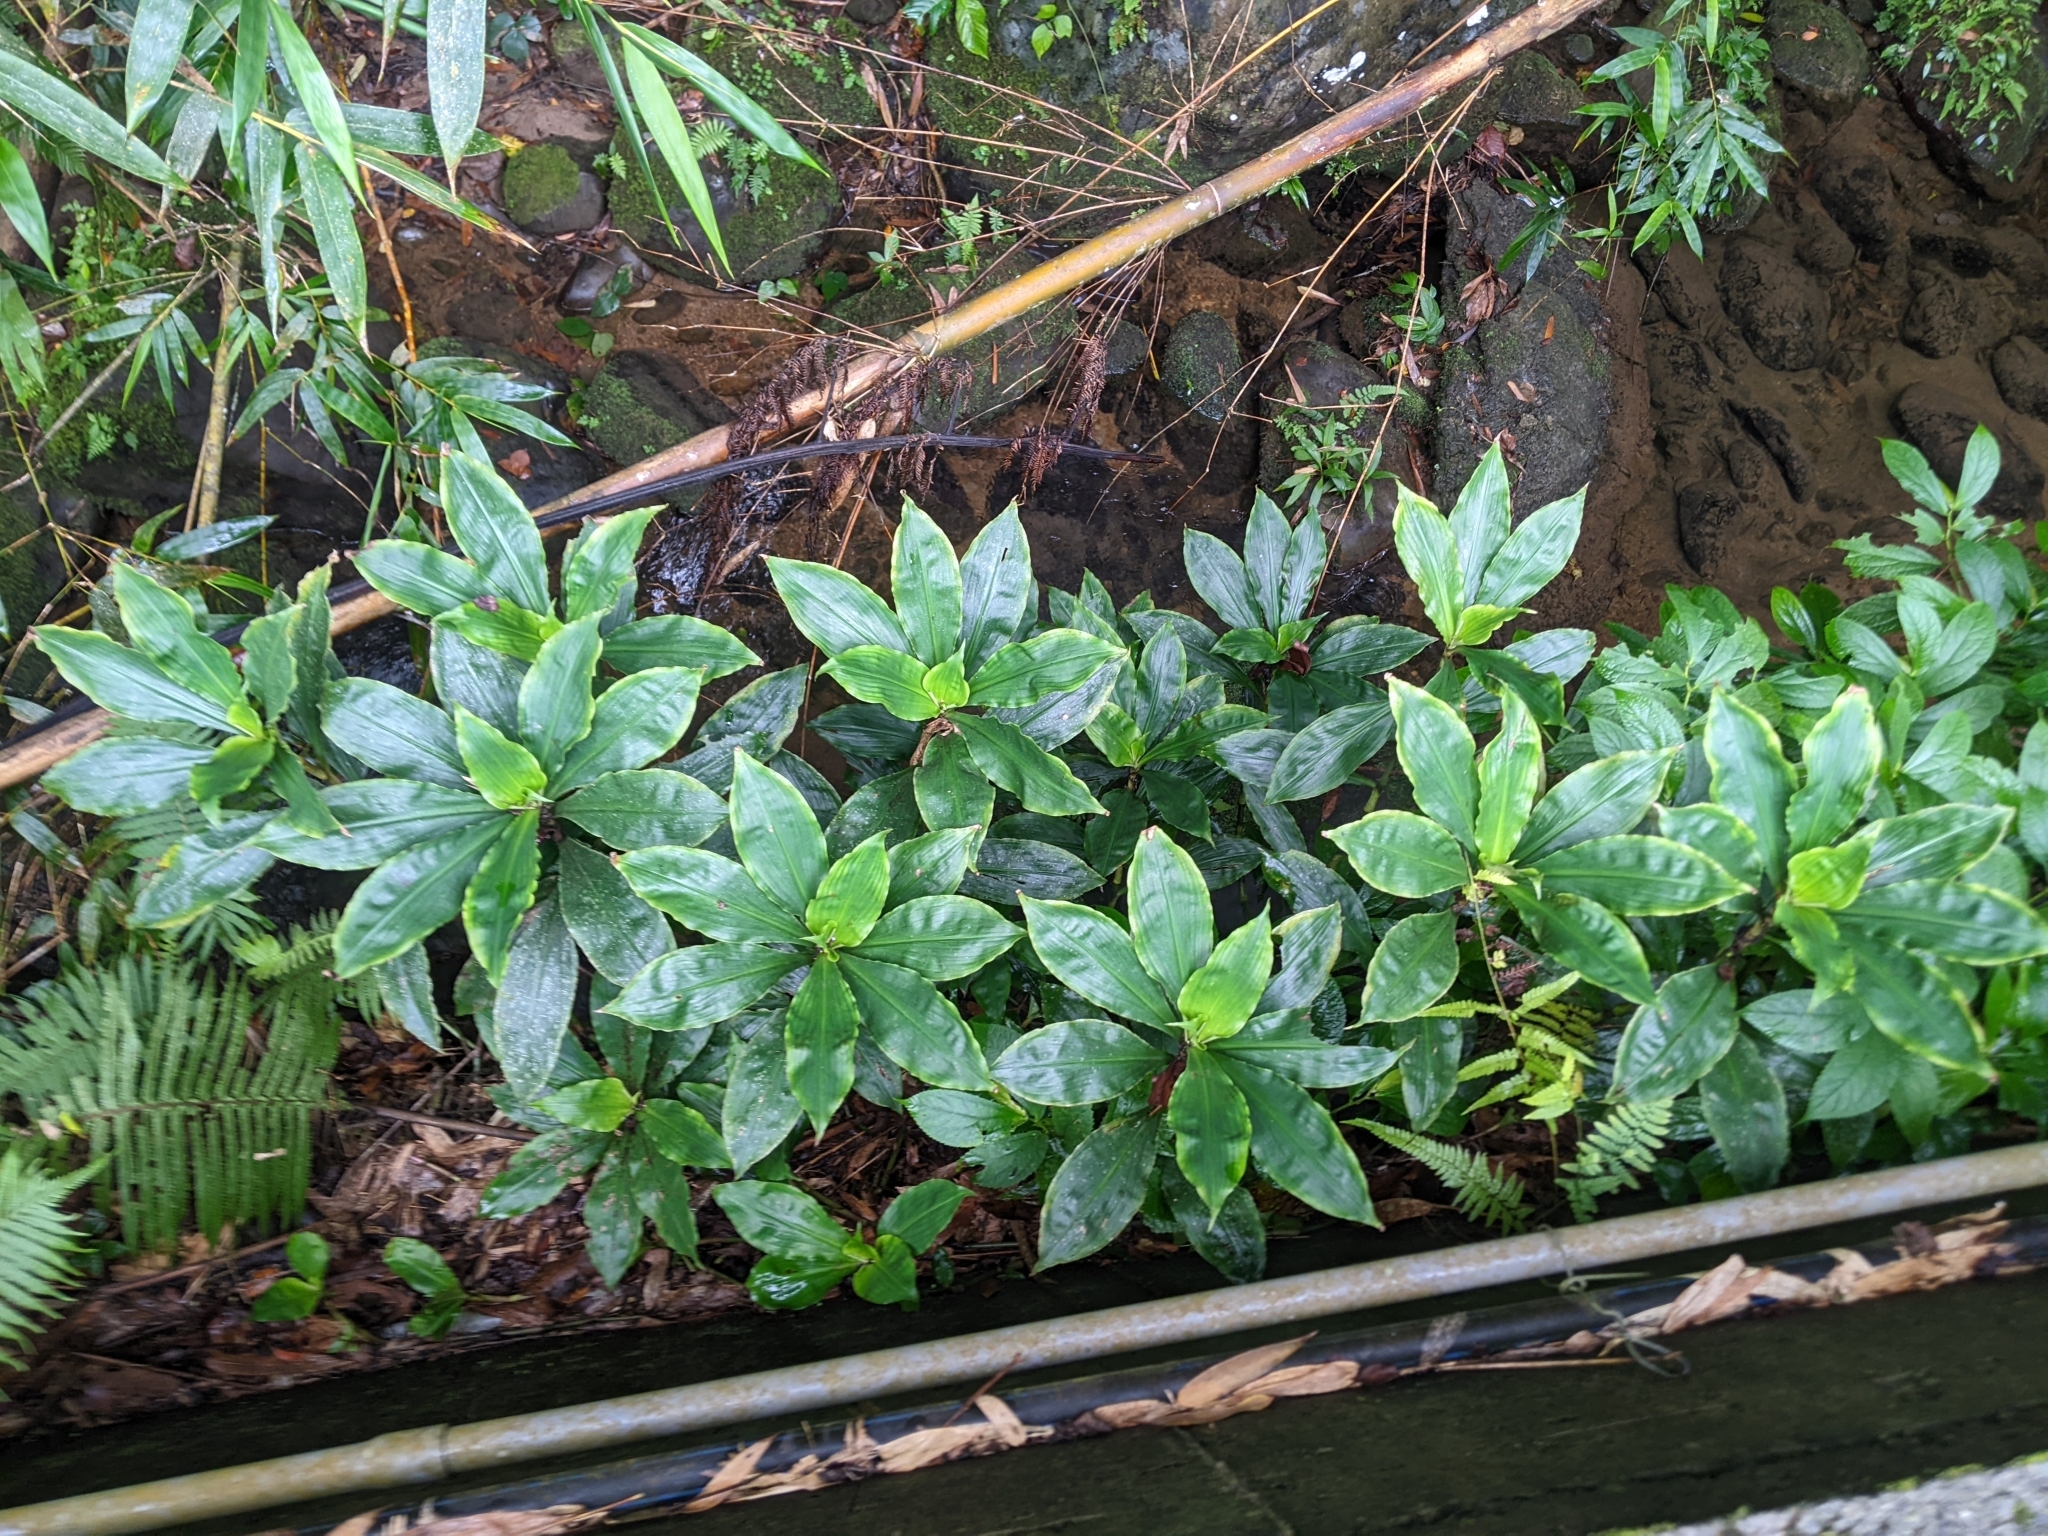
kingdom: Plantae
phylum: Tracheophyta
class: Liliopsida
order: Commelinales
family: Commelinaceae
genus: Amischotolype
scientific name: Amischotolype glabrata
